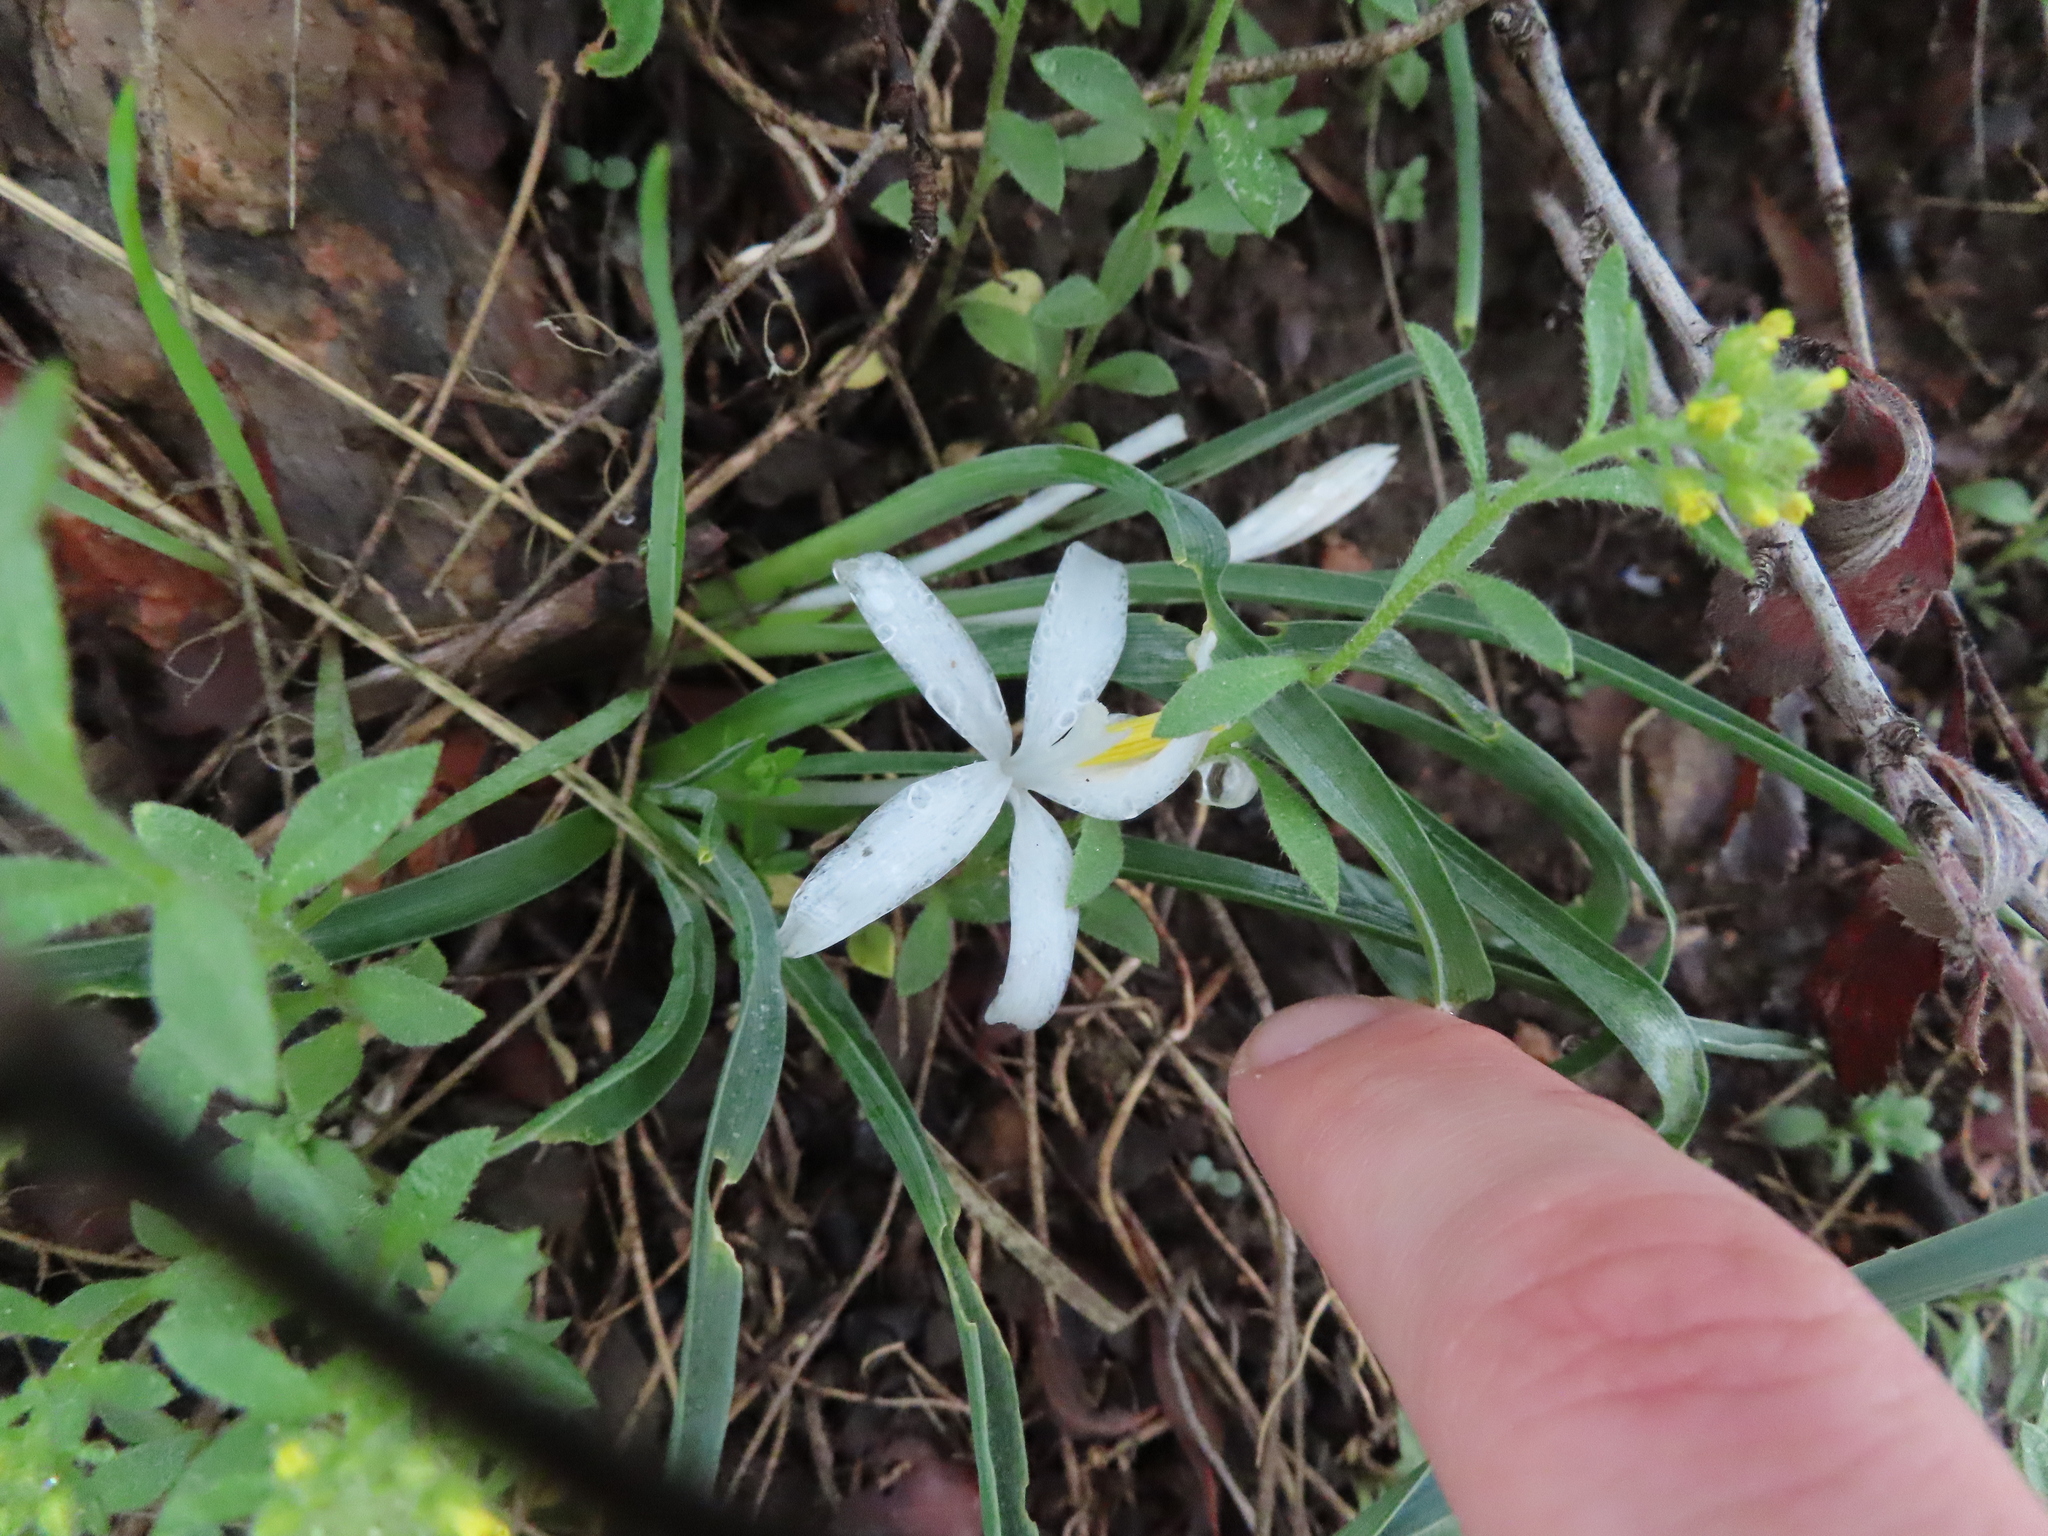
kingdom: Plantae
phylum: Tracheophyta
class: Liliopsida
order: Asparagales
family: Asparagaceae
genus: Leucocrinum
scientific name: Leucocrinum montanum
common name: Mountain-lily
